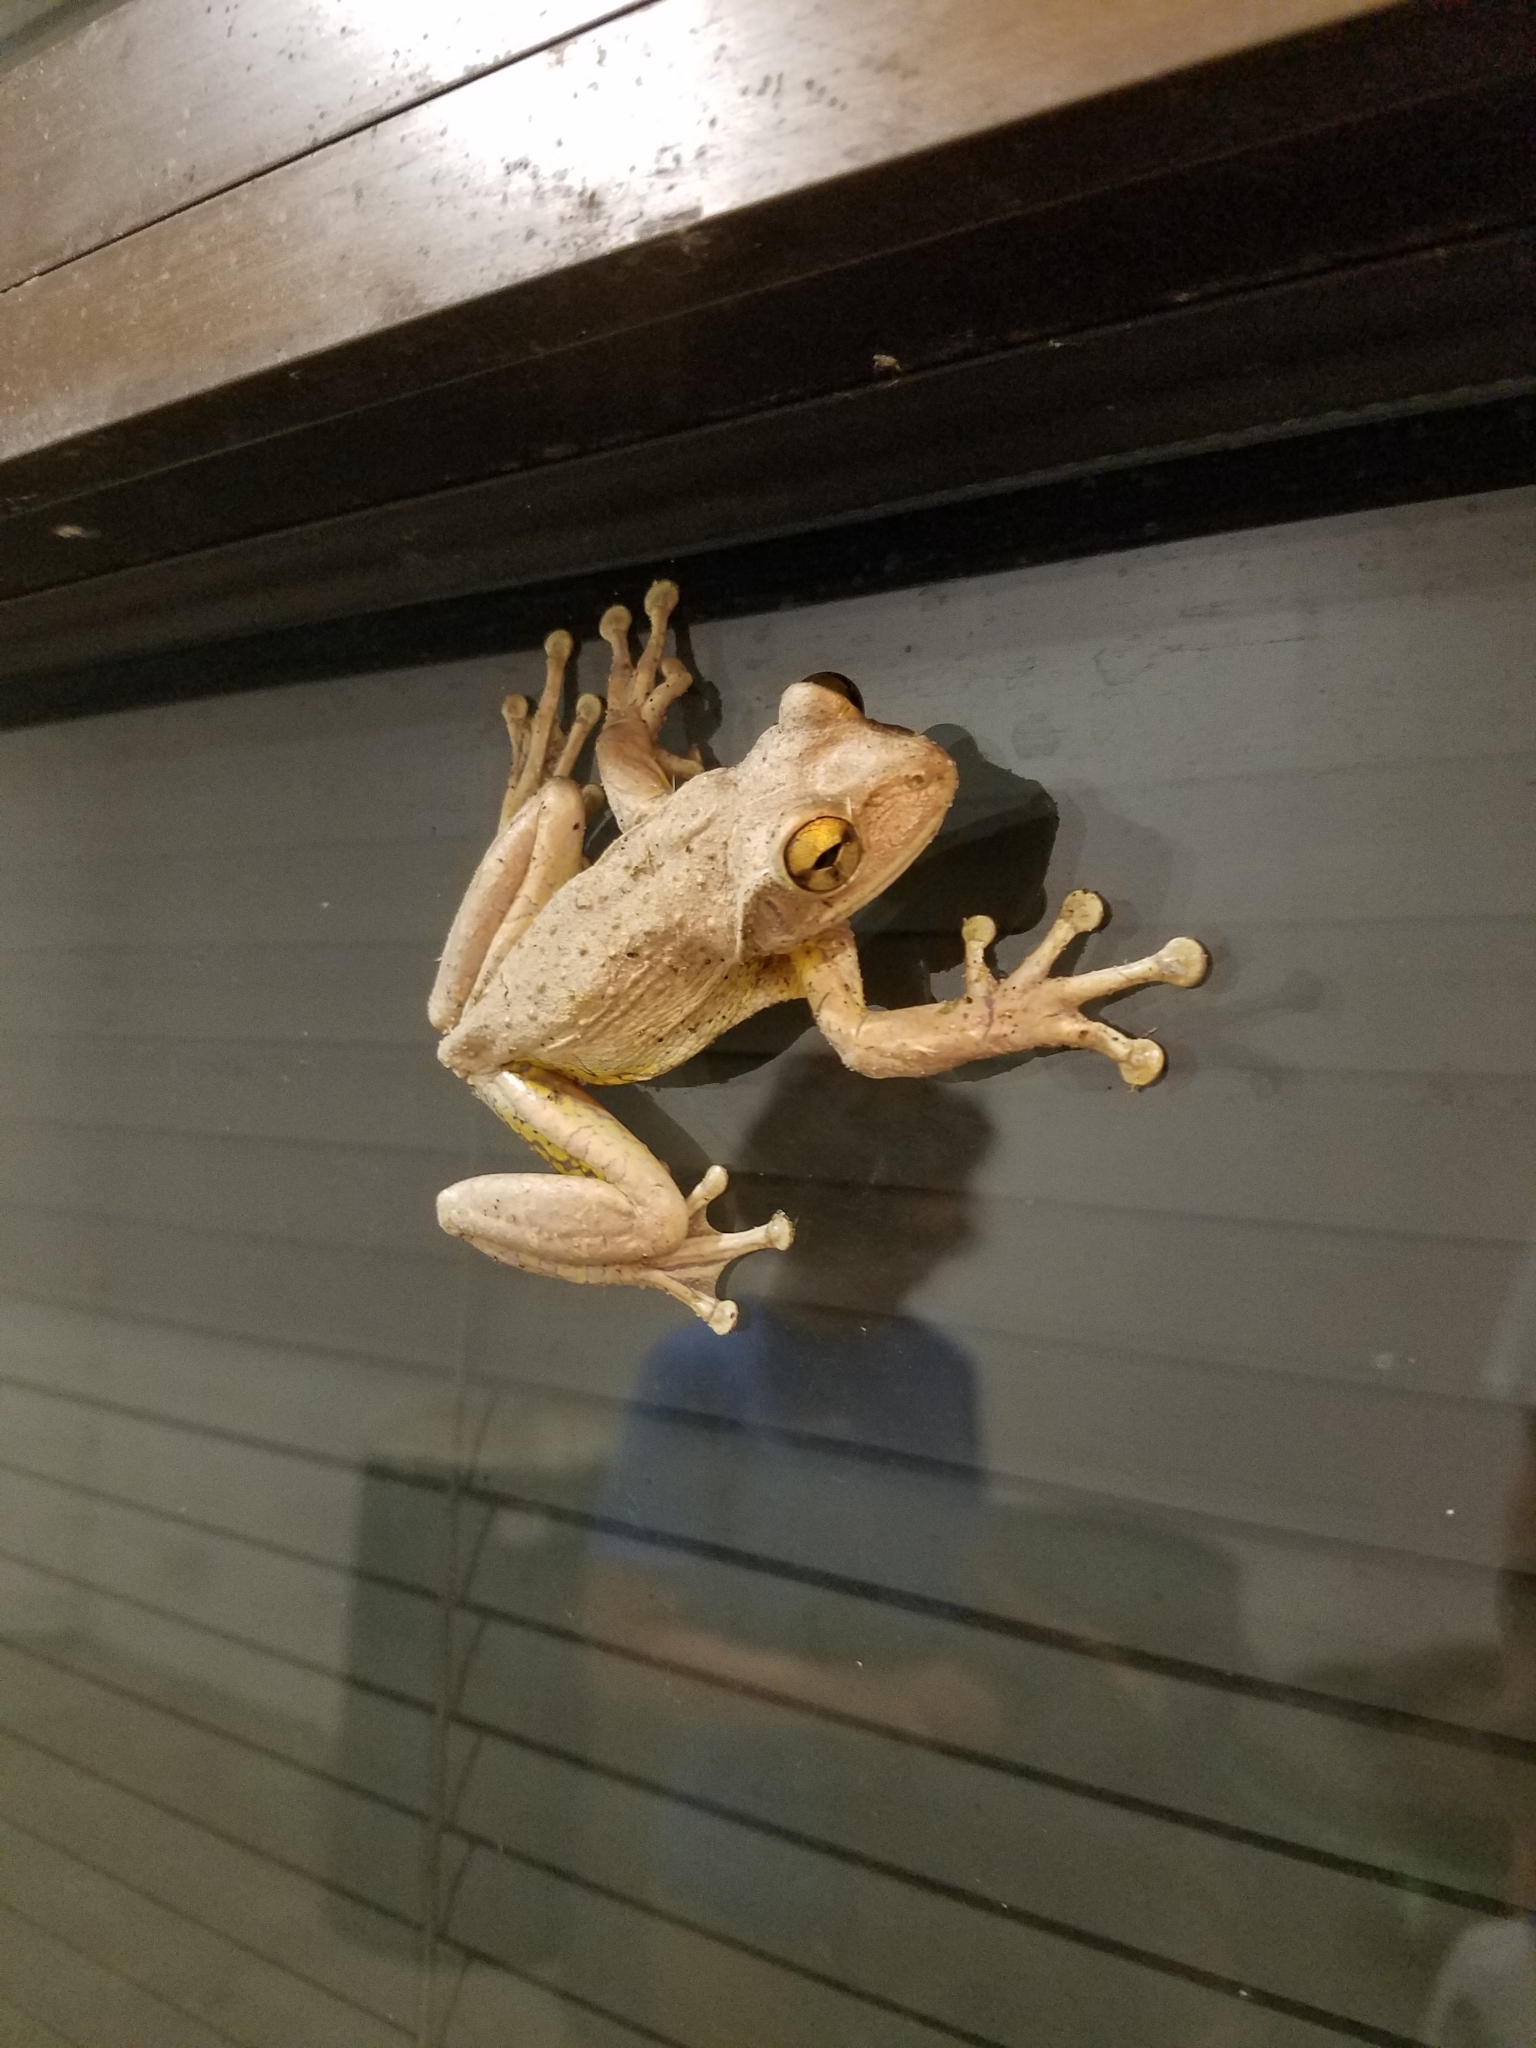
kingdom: Animalia
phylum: Chordata
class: Amphibia
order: Anura
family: Hylidae
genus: Osteopilus
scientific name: Osteopilus septentrionalis
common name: Cuban treefrog
